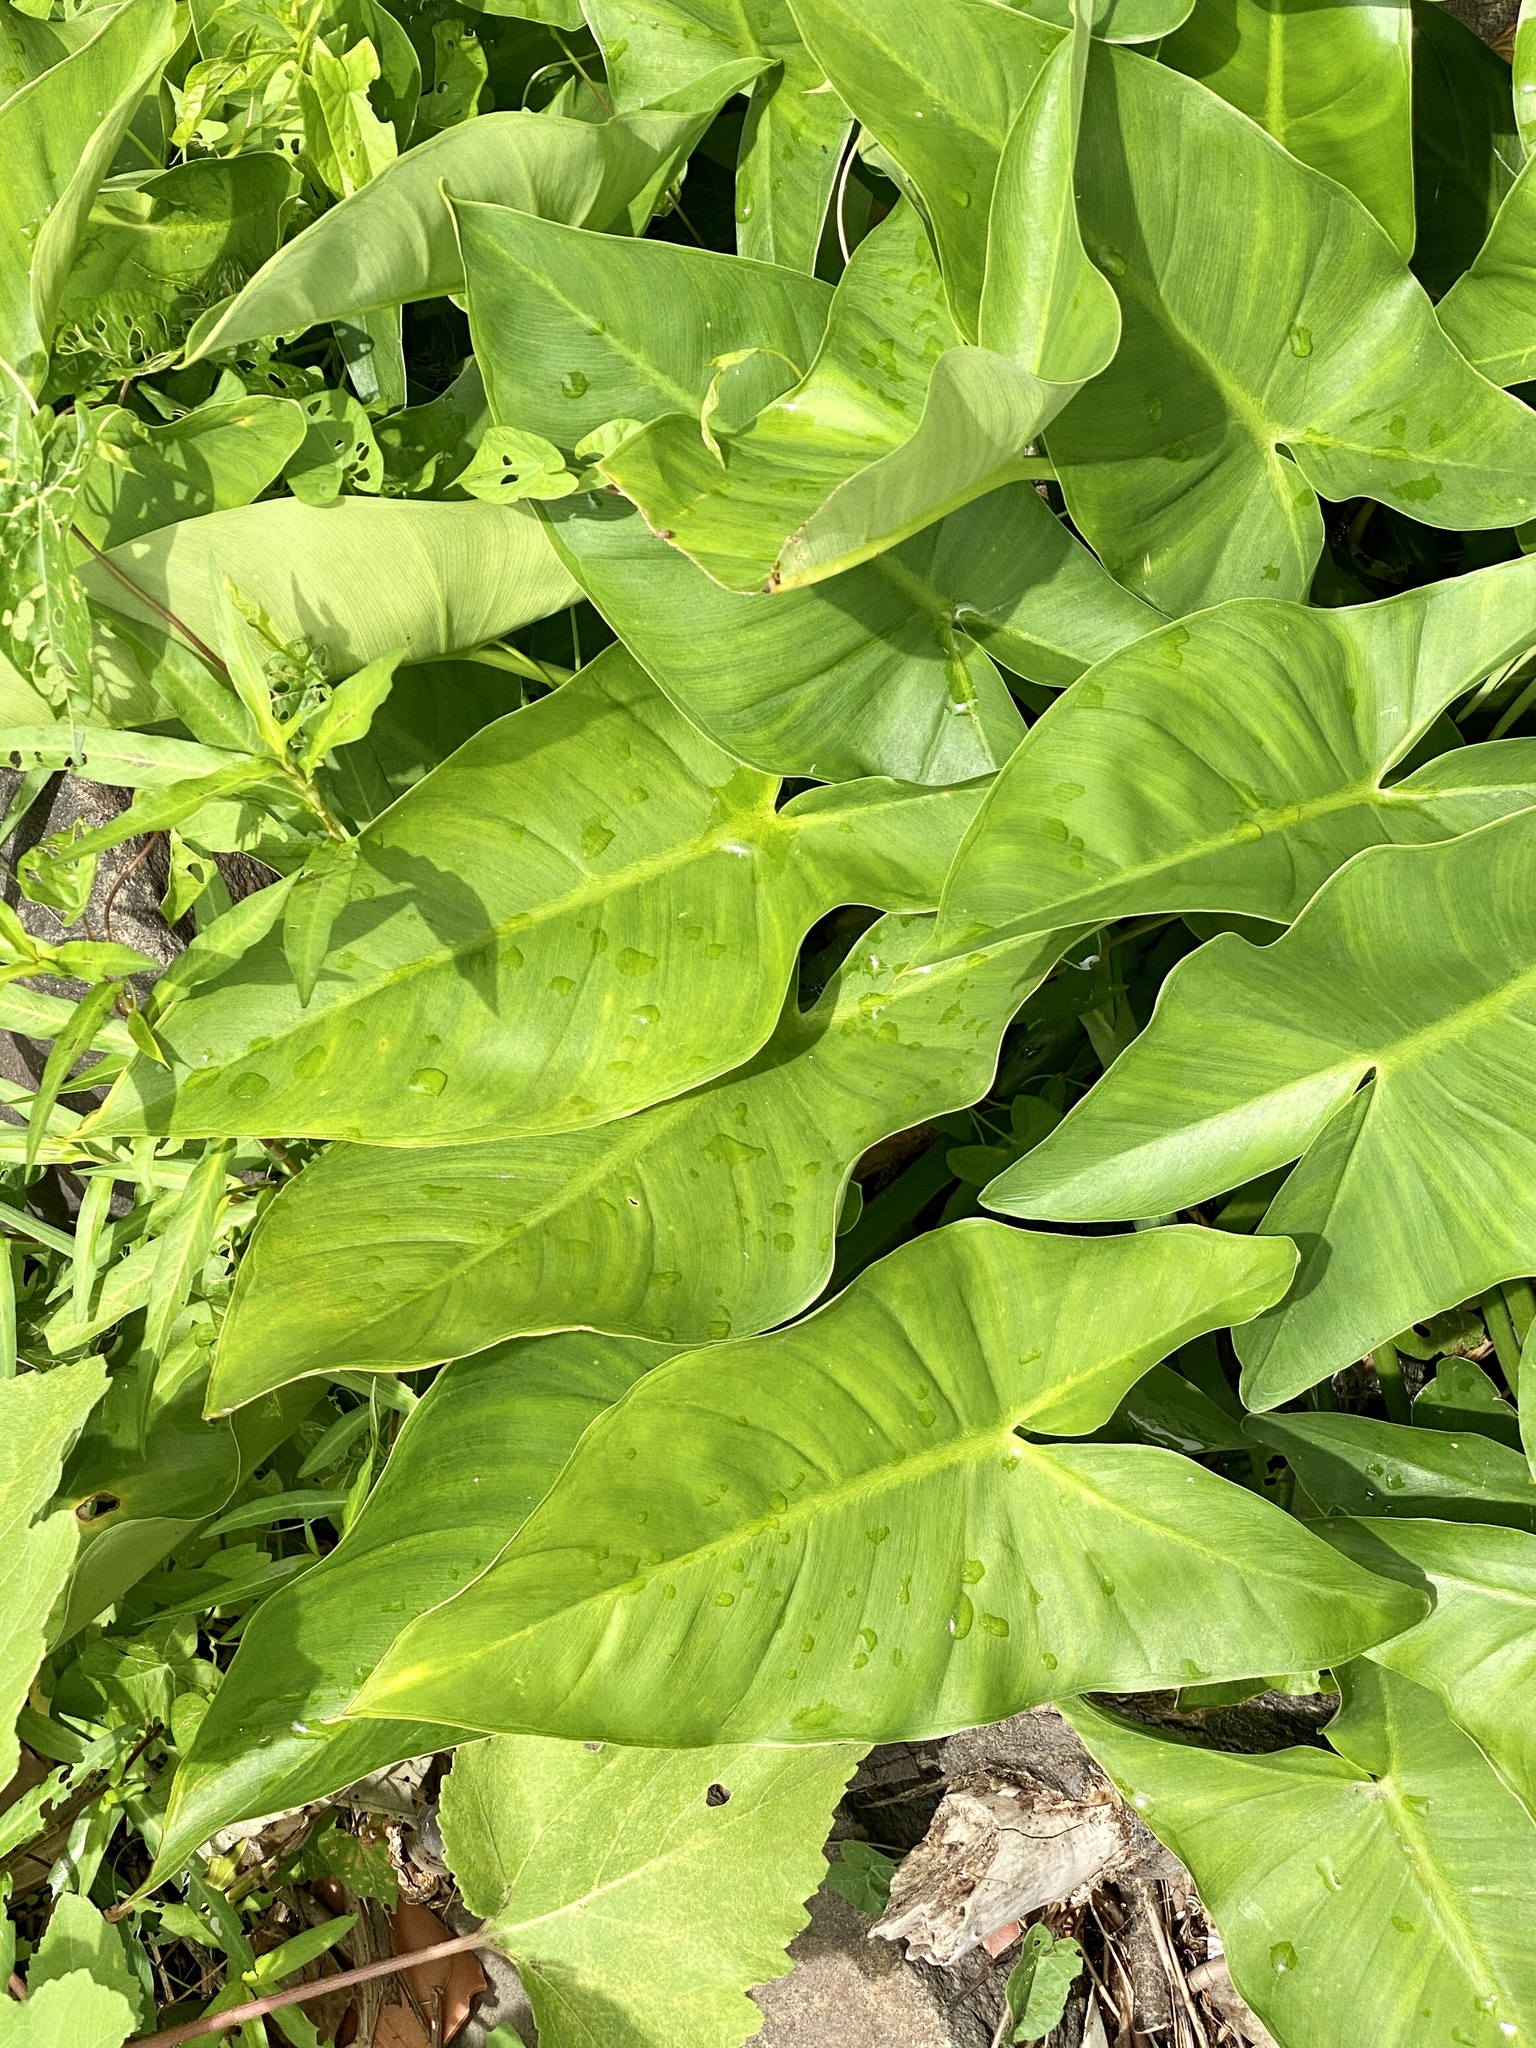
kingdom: Plantae
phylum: Tracheophyta
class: Liliopsida
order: Alismatales
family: Araceae
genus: Peltandra
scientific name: Peltandra virginica
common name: Arrow arum
